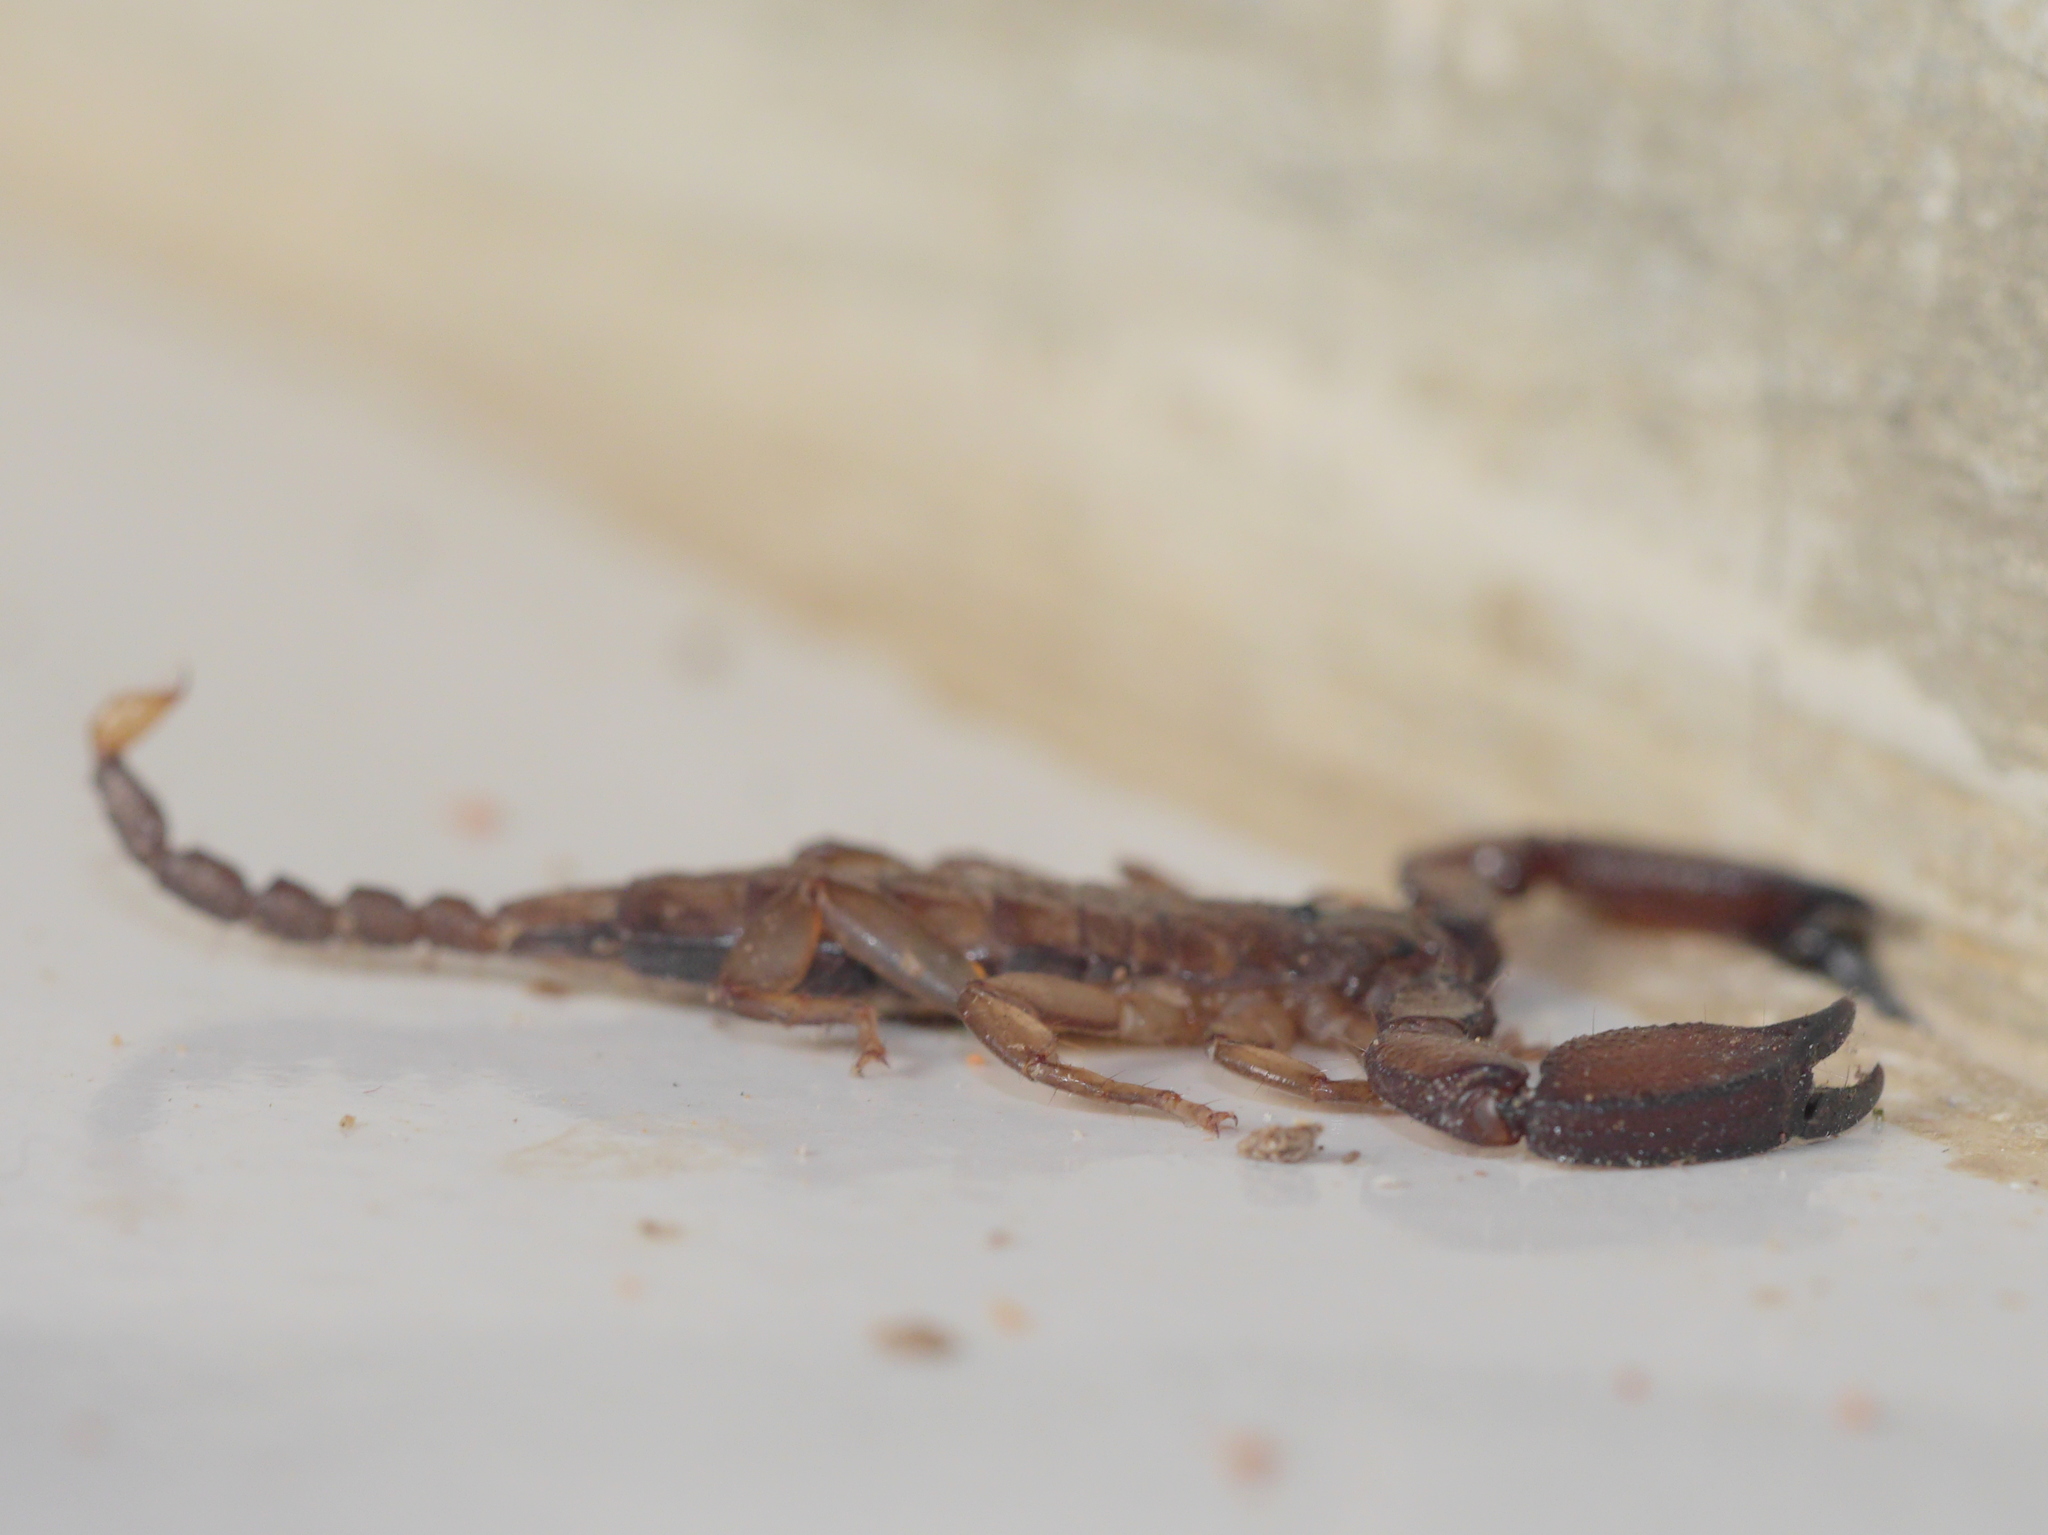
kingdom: Animalia
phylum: Arthropoda
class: Arachnida
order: Scorpiones
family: Hormuridae
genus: Liocheles
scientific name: Liocheles australasiae
